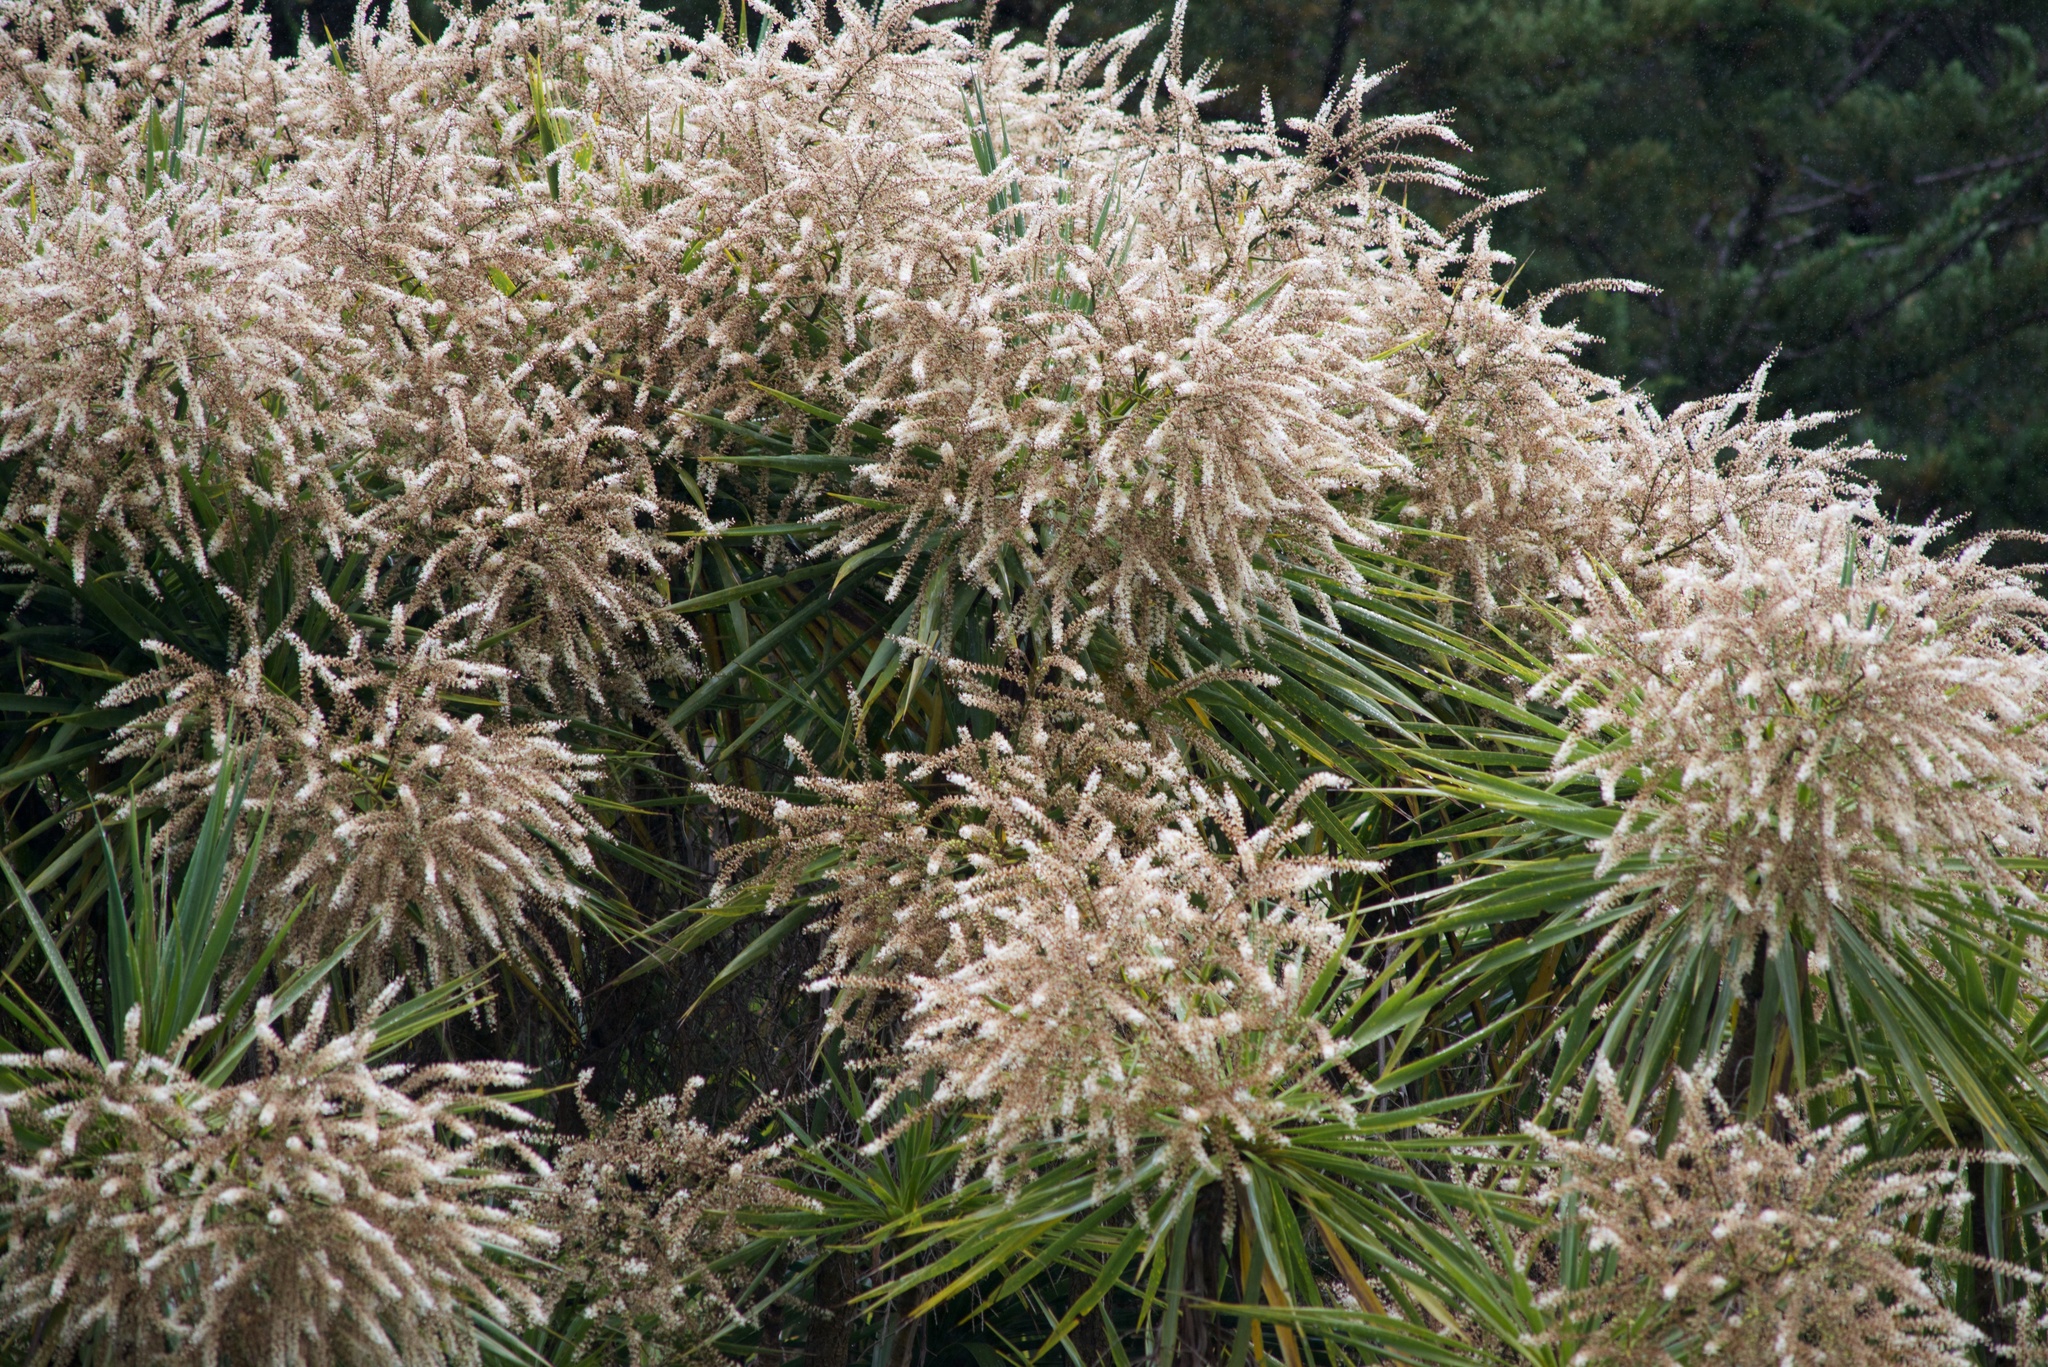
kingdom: Plantae
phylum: Tracheophyta
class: Liliopsida
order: Asparagales
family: Asparagaceae
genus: Cordyline
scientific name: Cordyline australis
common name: Cabbage-palm
